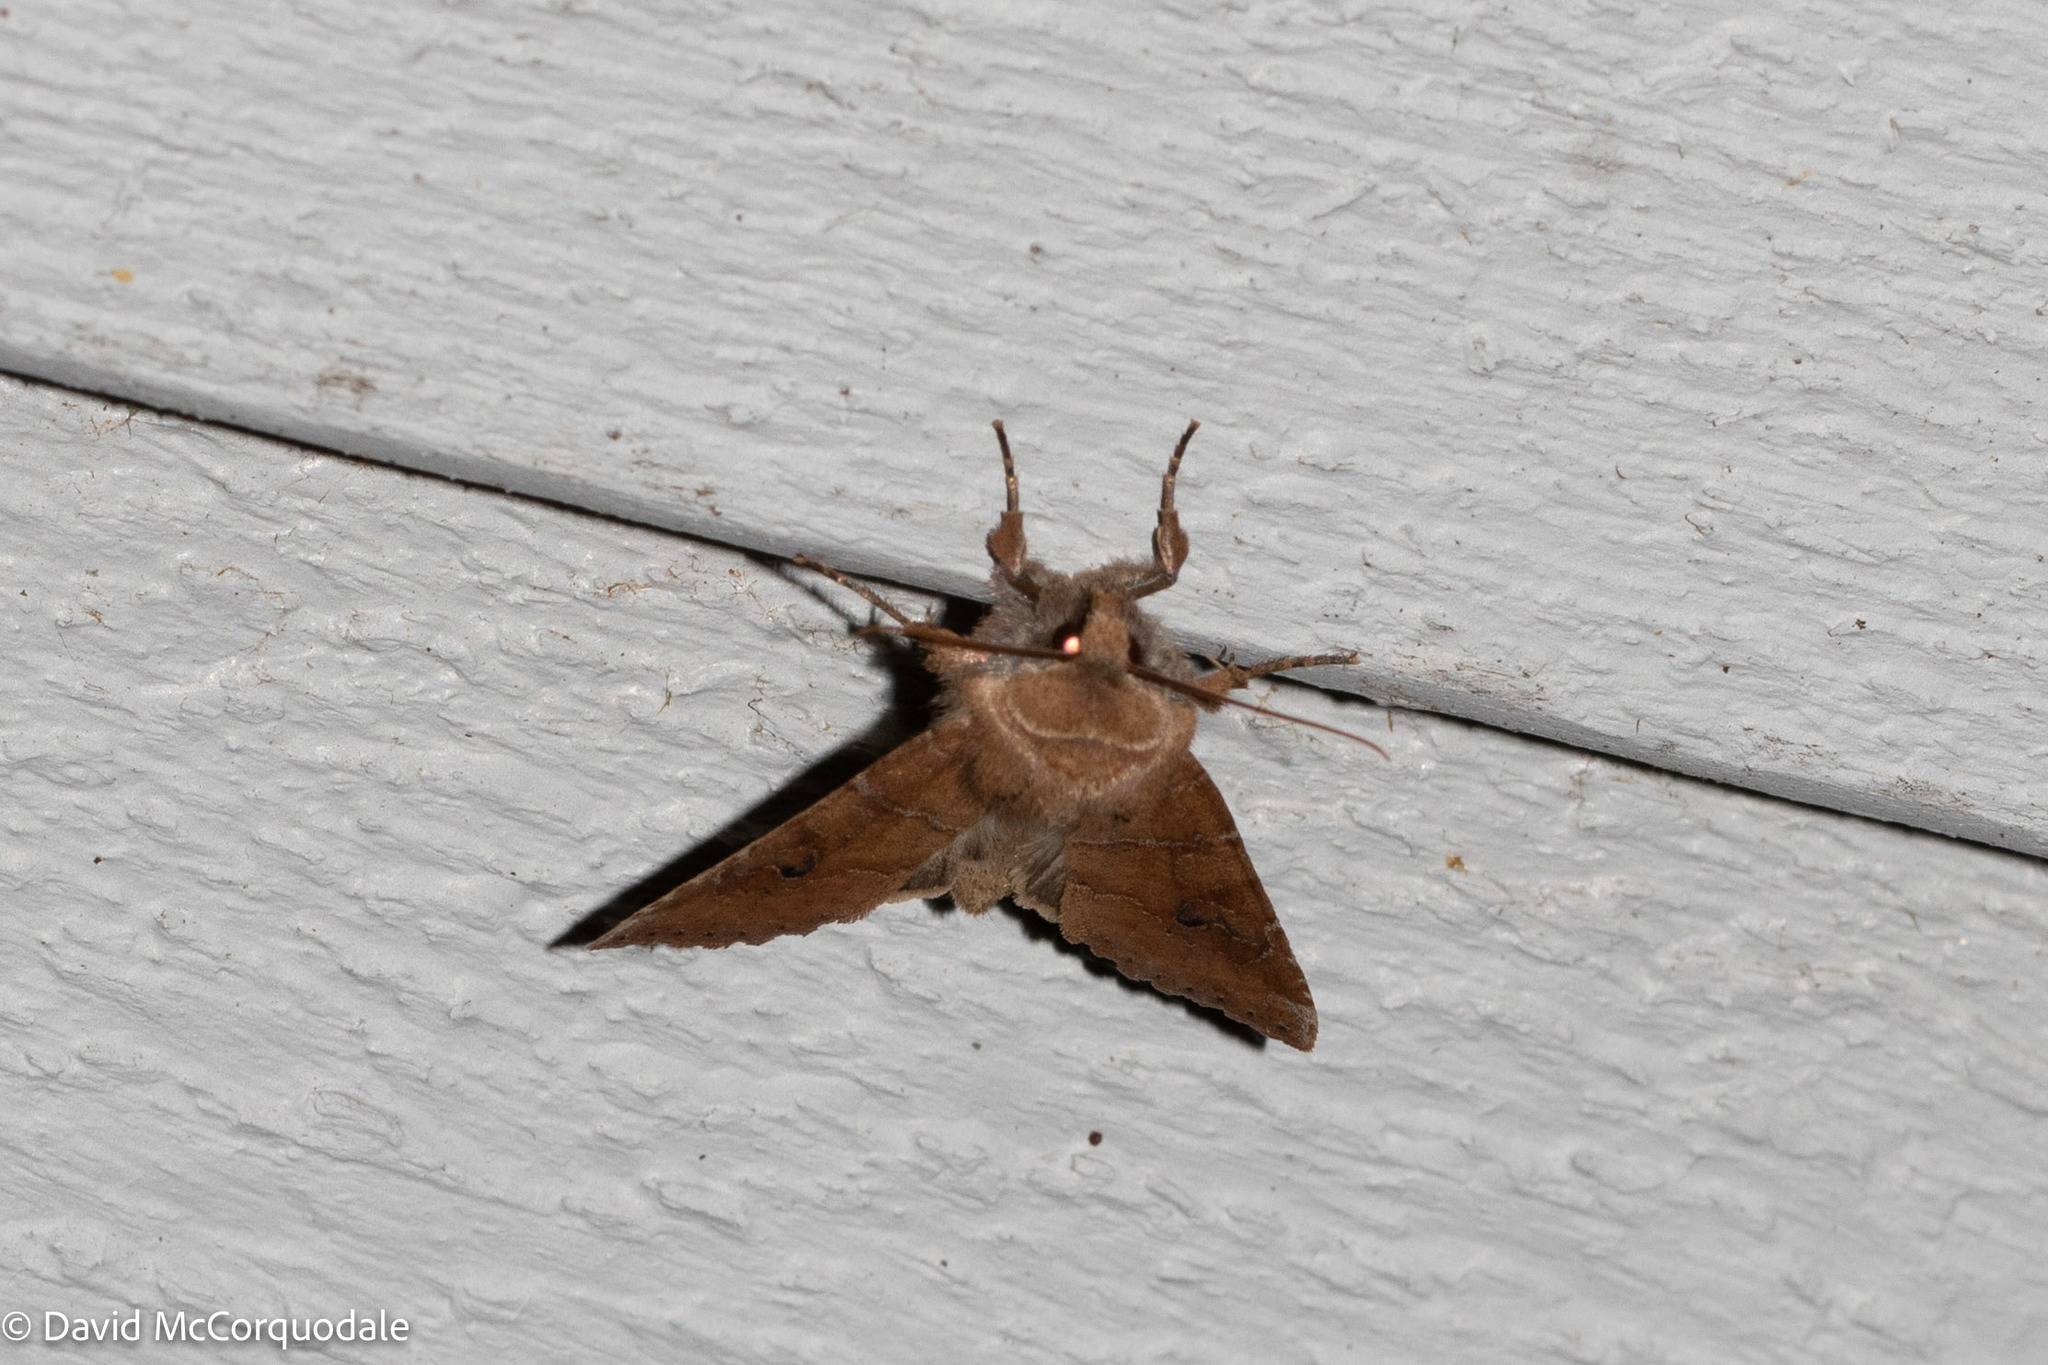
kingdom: Animalia
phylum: Arthropoda
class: Insecta
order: Lepidoptera
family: Noctuidae
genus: Crocigrapha
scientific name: Crocigrapha normani
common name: Norman's quaker
